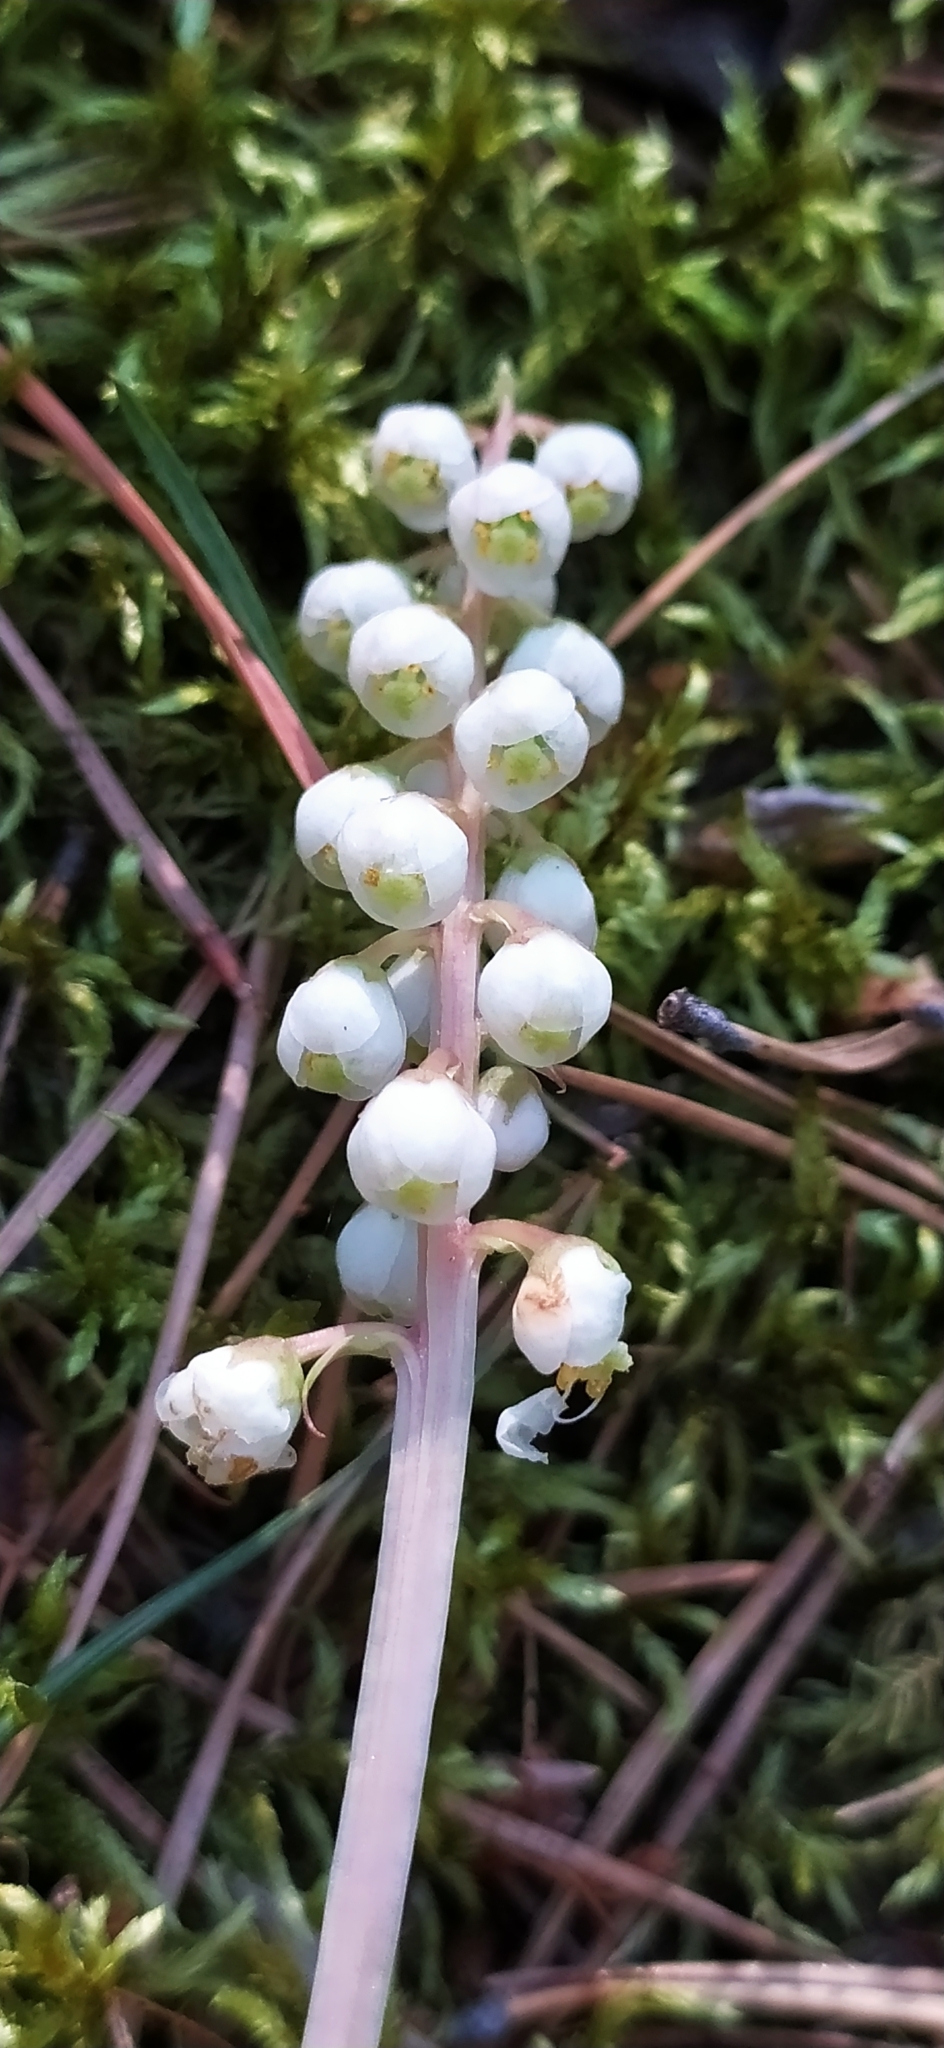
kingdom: Plantae
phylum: Tracheophyta
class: Magnoliopsida
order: Ericales
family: Ericaceae
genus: Pyrola
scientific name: Pyrola minor
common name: Common wintergreen
